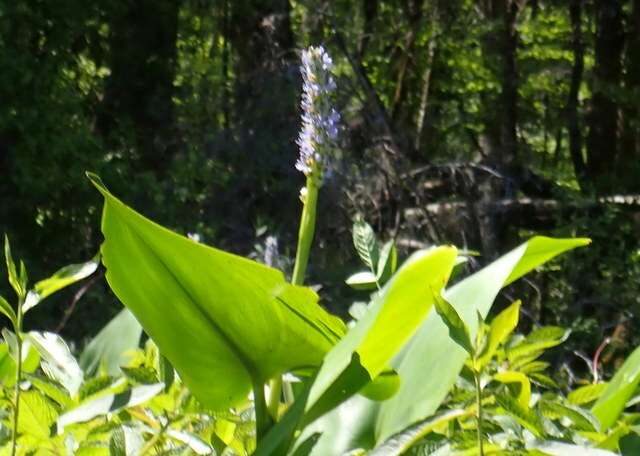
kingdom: Plantae
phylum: Tracheophyta
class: Liliopsida
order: Commelinales
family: Pontederiaceae
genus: Pontederia
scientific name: Pontederia cordata
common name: Pickerelweed
